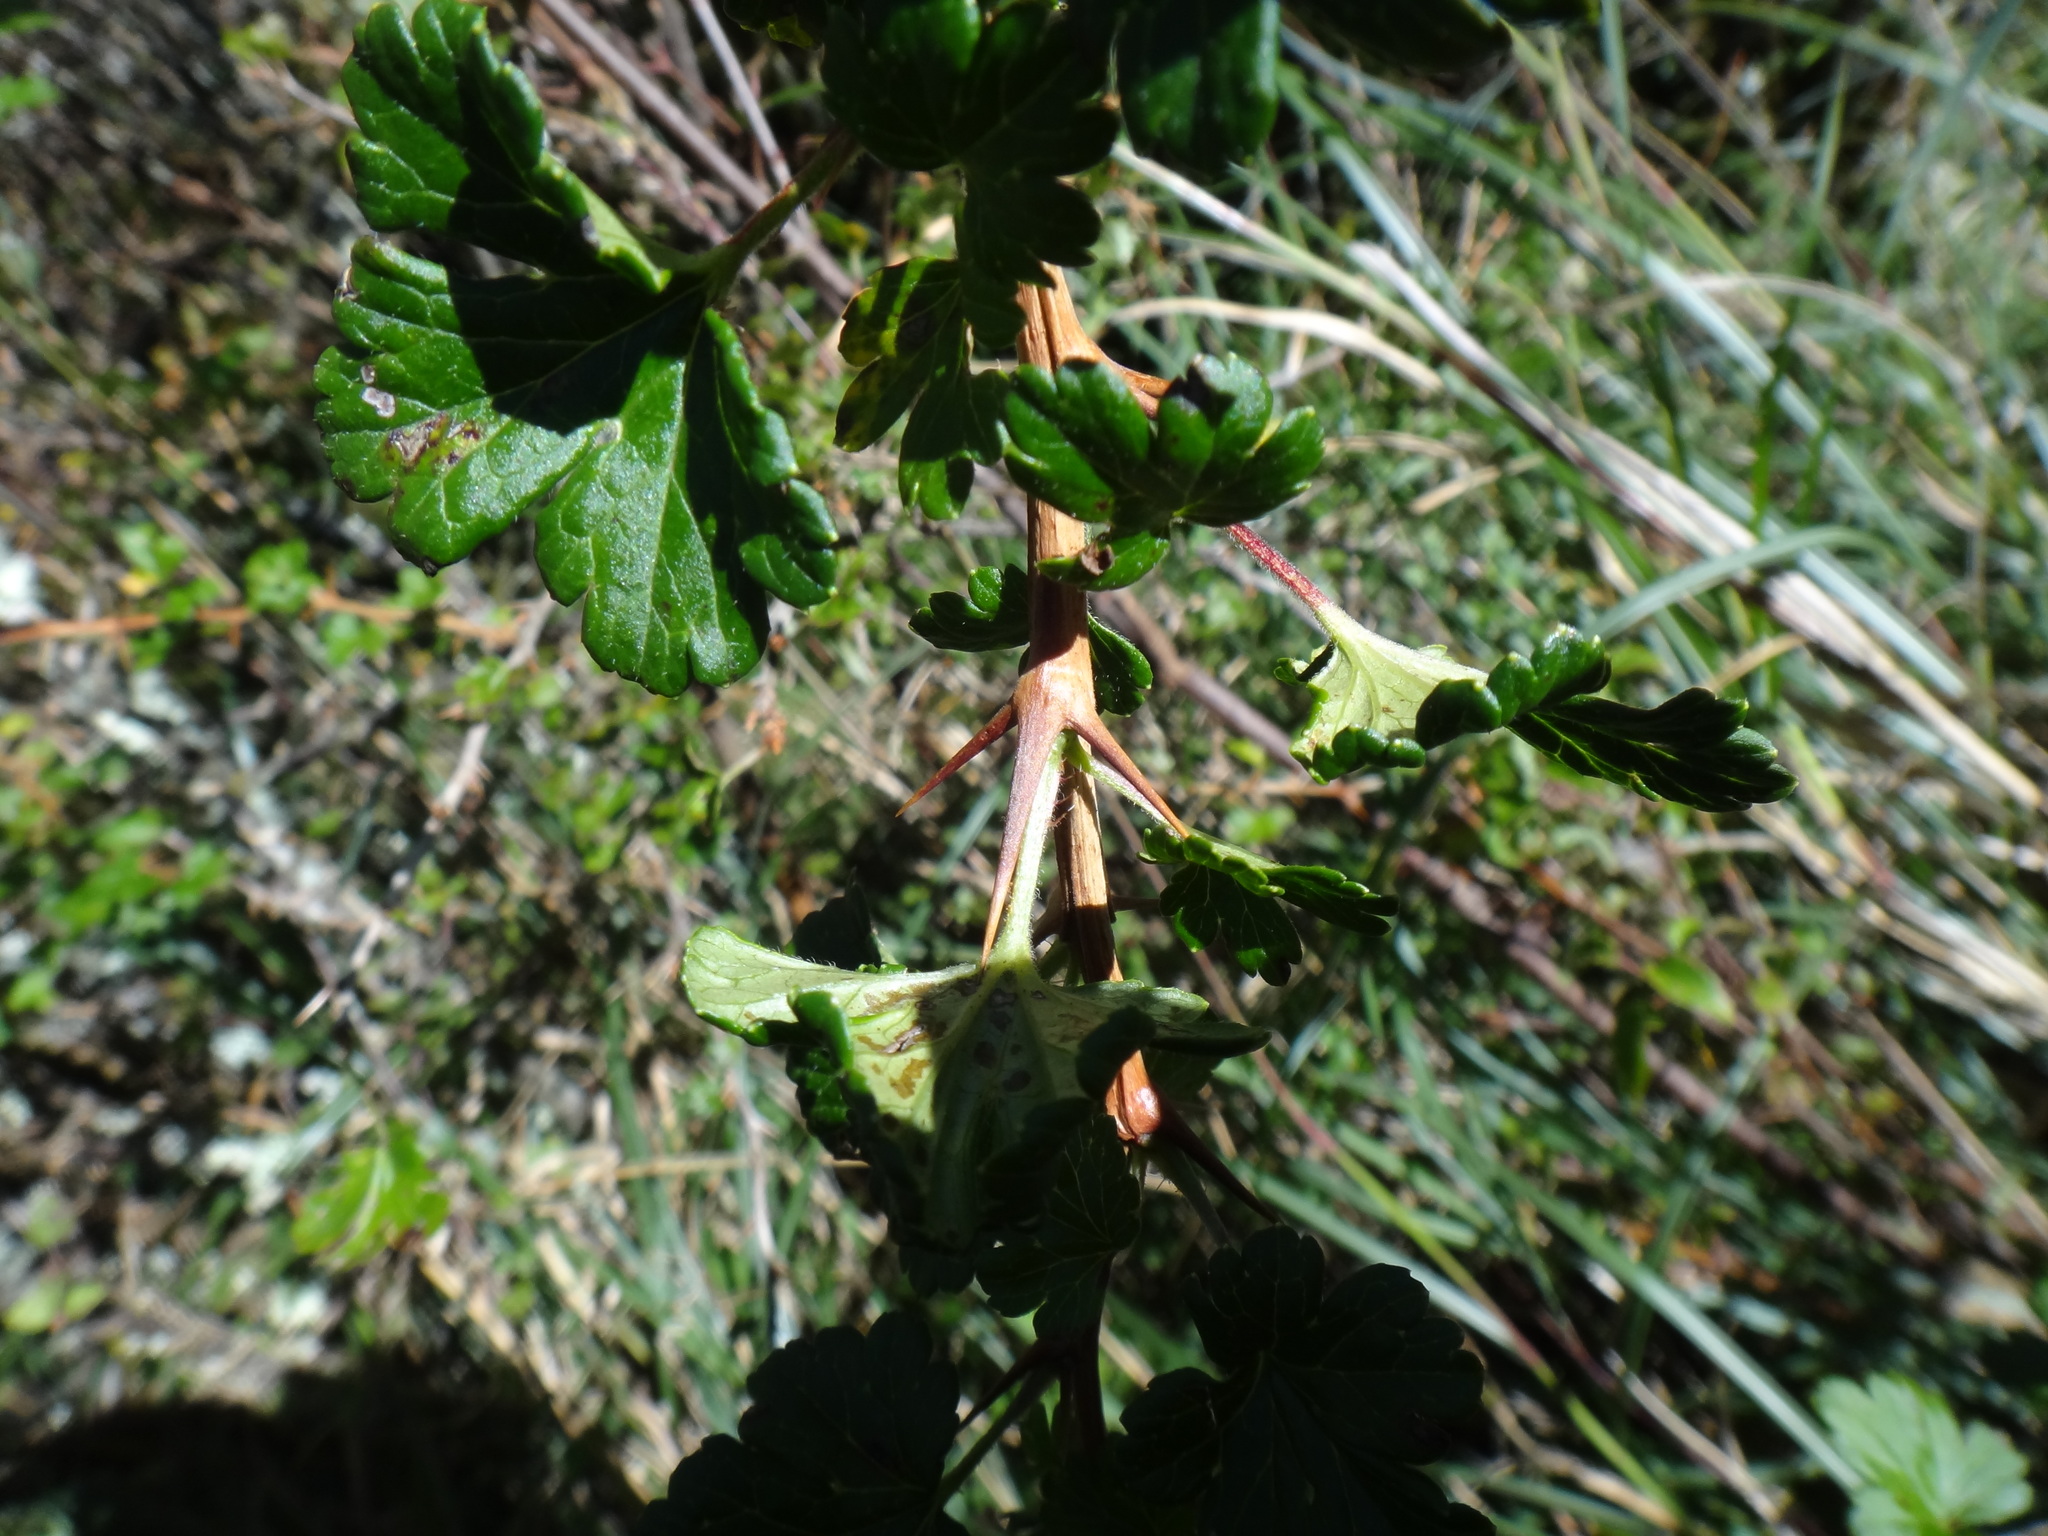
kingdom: Plantae
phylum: Tracheophyta
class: Magnoliopsida
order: Saxifragales
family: Grossulariaceae
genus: Ribes
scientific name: Ribes formosanum
